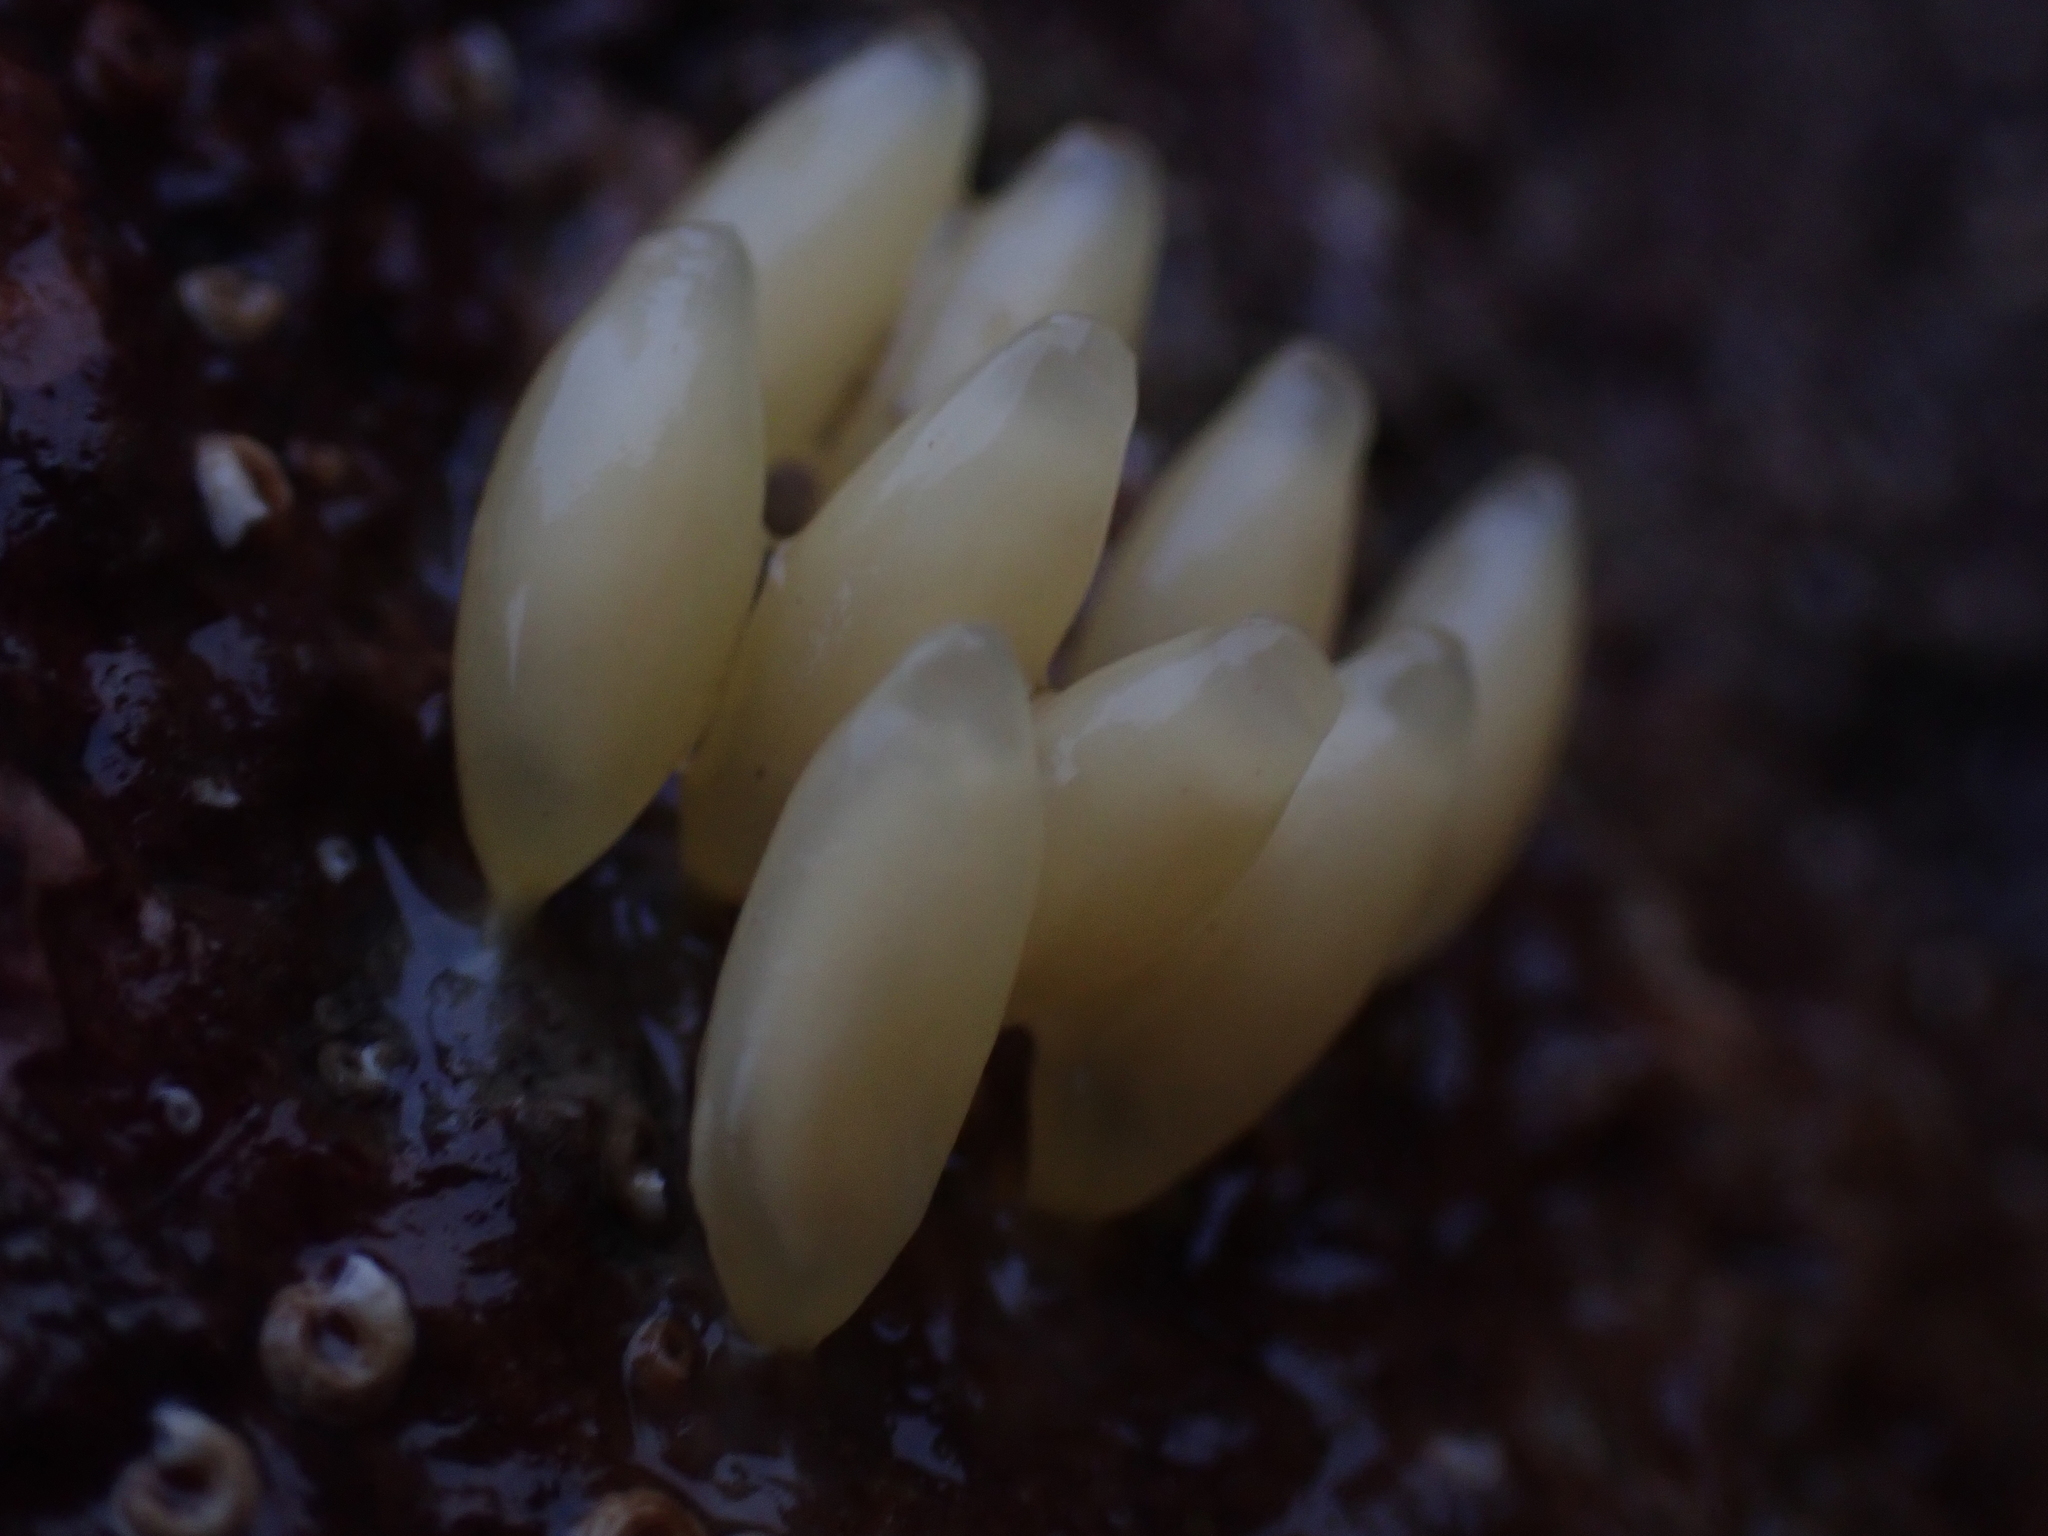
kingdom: Animalia
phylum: Mollusca
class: Gastropoda
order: Neogastropoda
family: Muricidae
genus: Nucella
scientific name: Nucella lapillus
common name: Dog whelk
